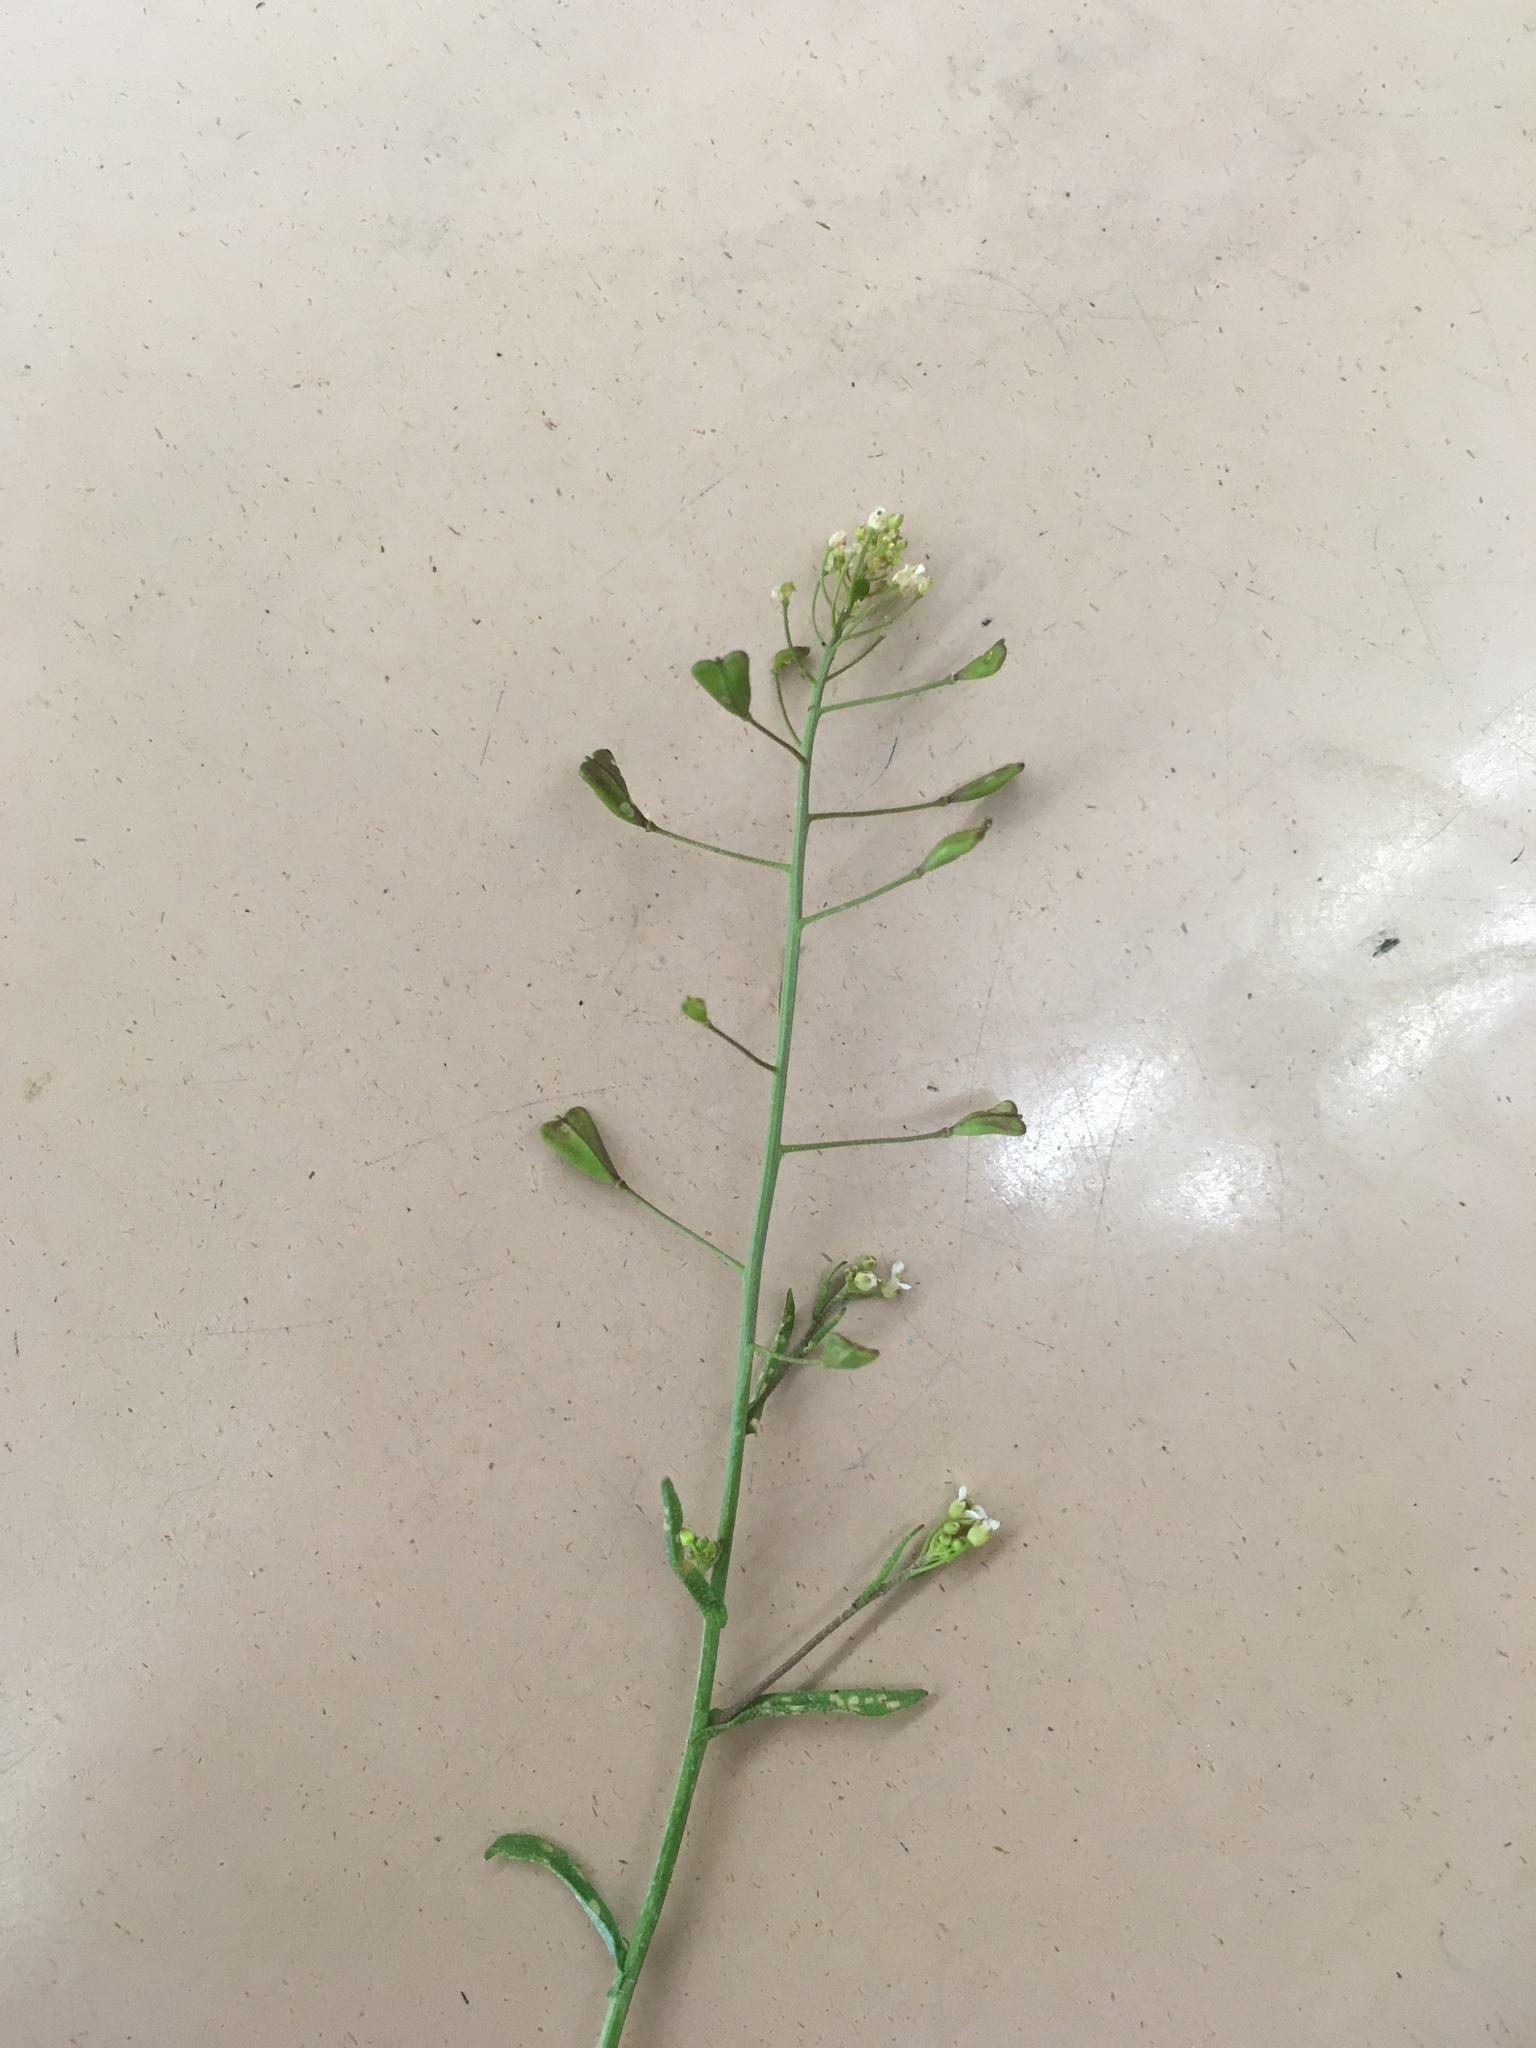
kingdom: Plantae
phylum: Tracheophyta
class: Magnoliopsida
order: Brassicales
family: Brassicaceae
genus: Capsella
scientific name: Capsella bursa-pastoris
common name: Shepherd's purse
